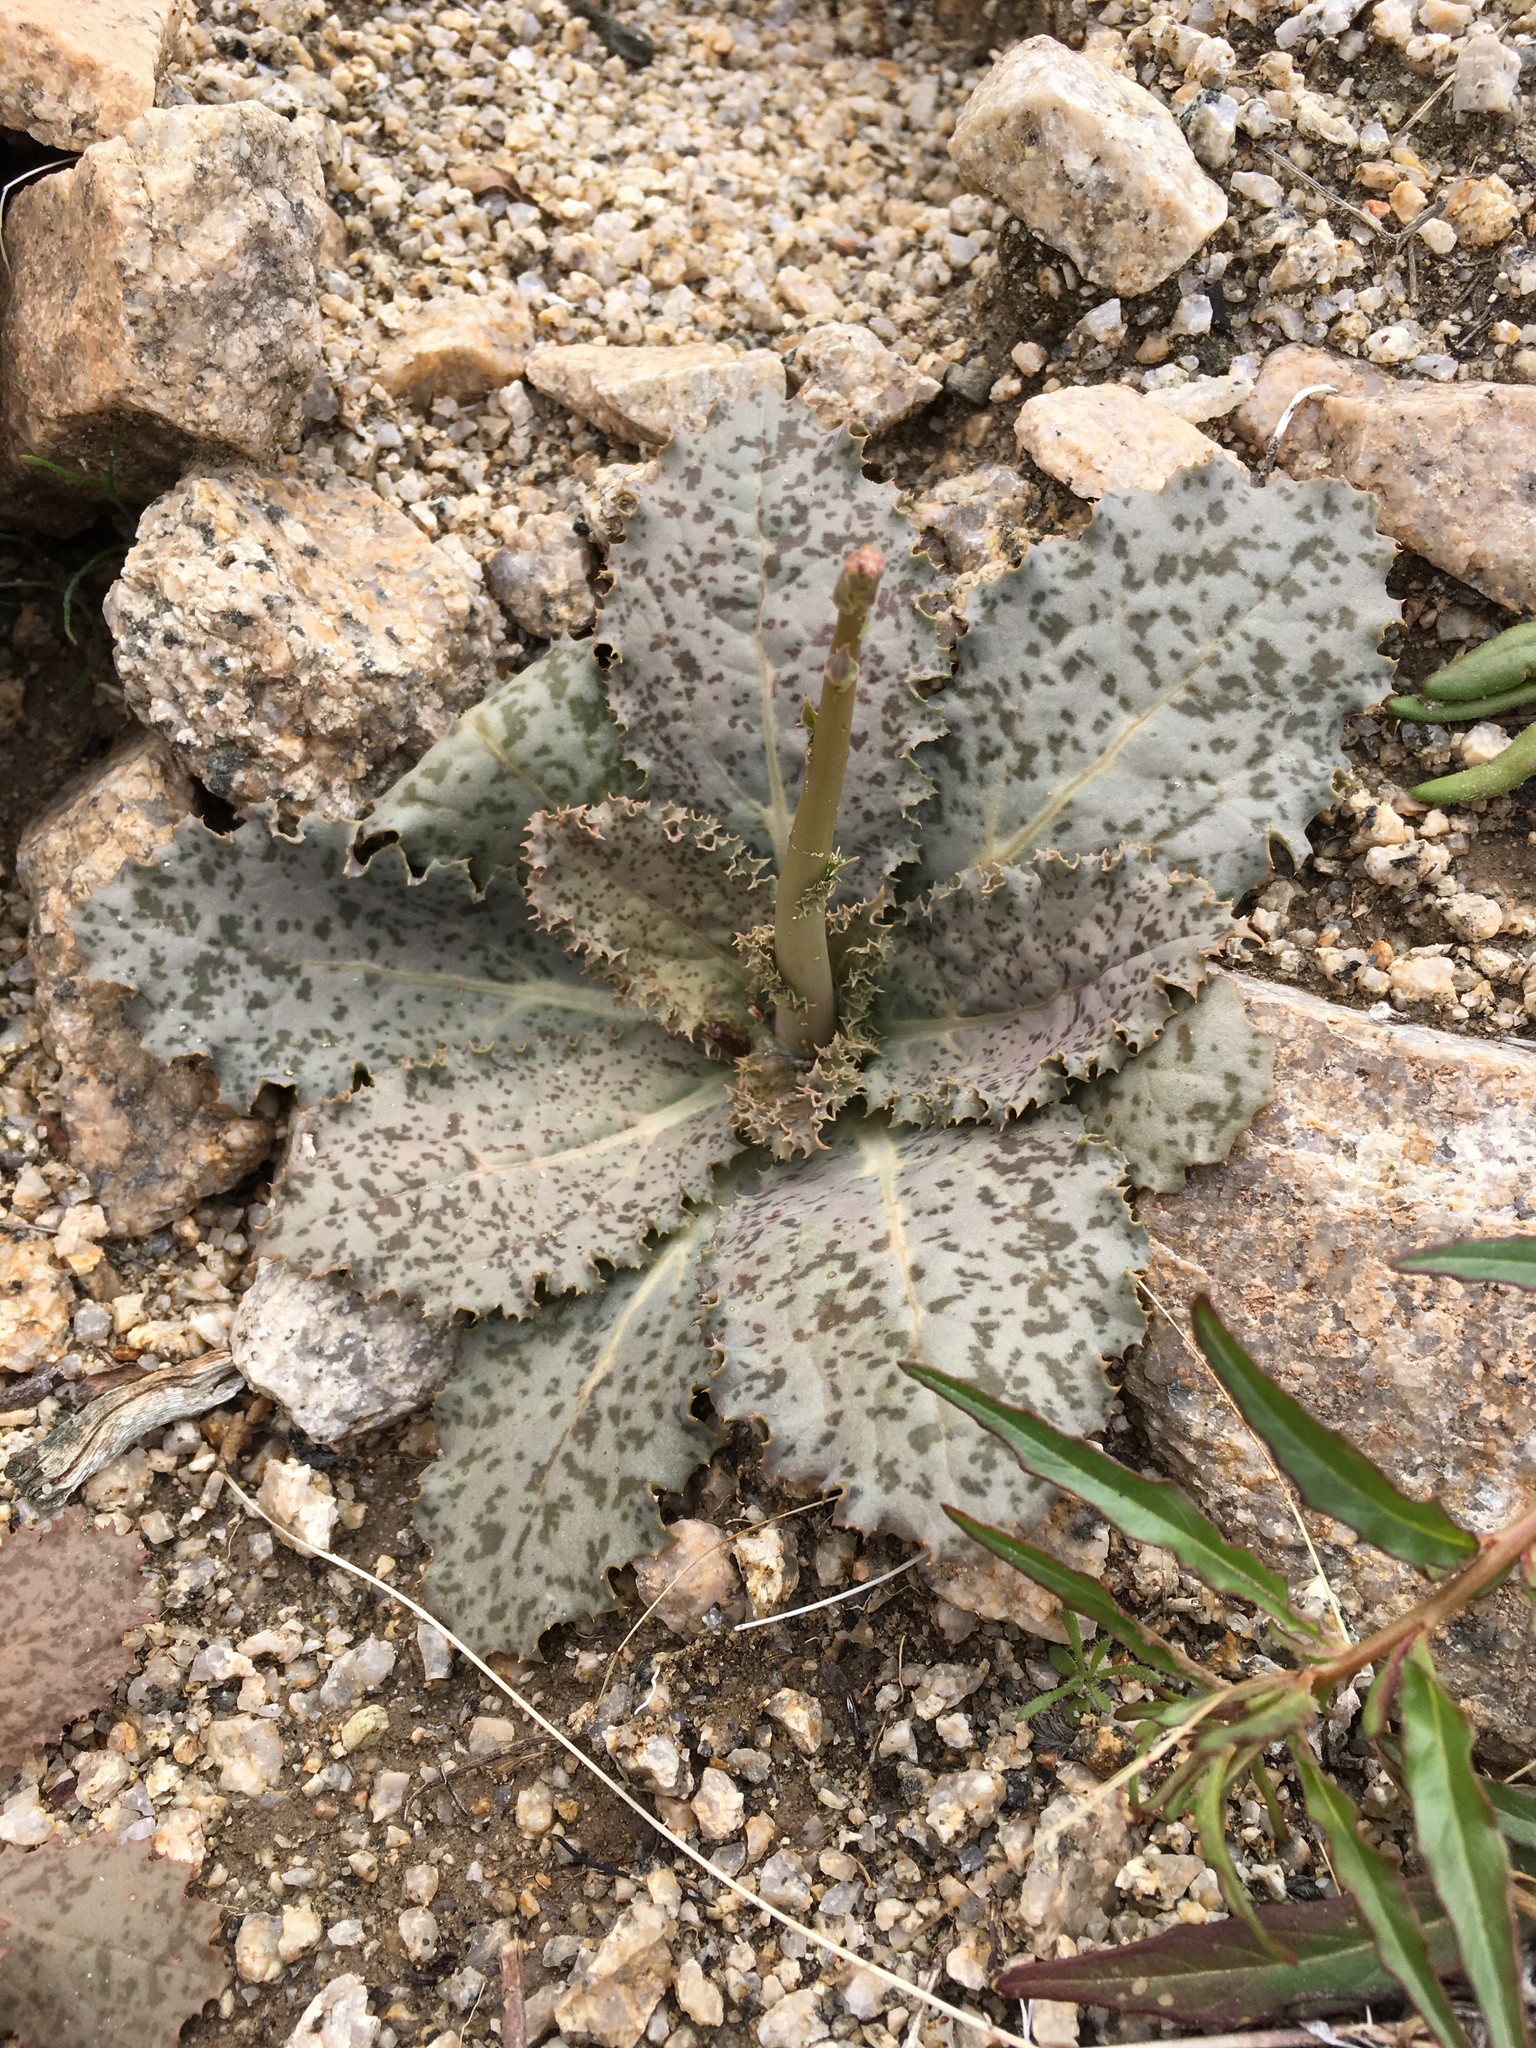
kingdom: Plantae
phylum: Tracheophyta
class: Magnoliopsida
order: Asterales
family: Asteraceae
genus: Atrichoseris
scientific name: Atrichoseris platyphylla
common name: Tobaccoweed
